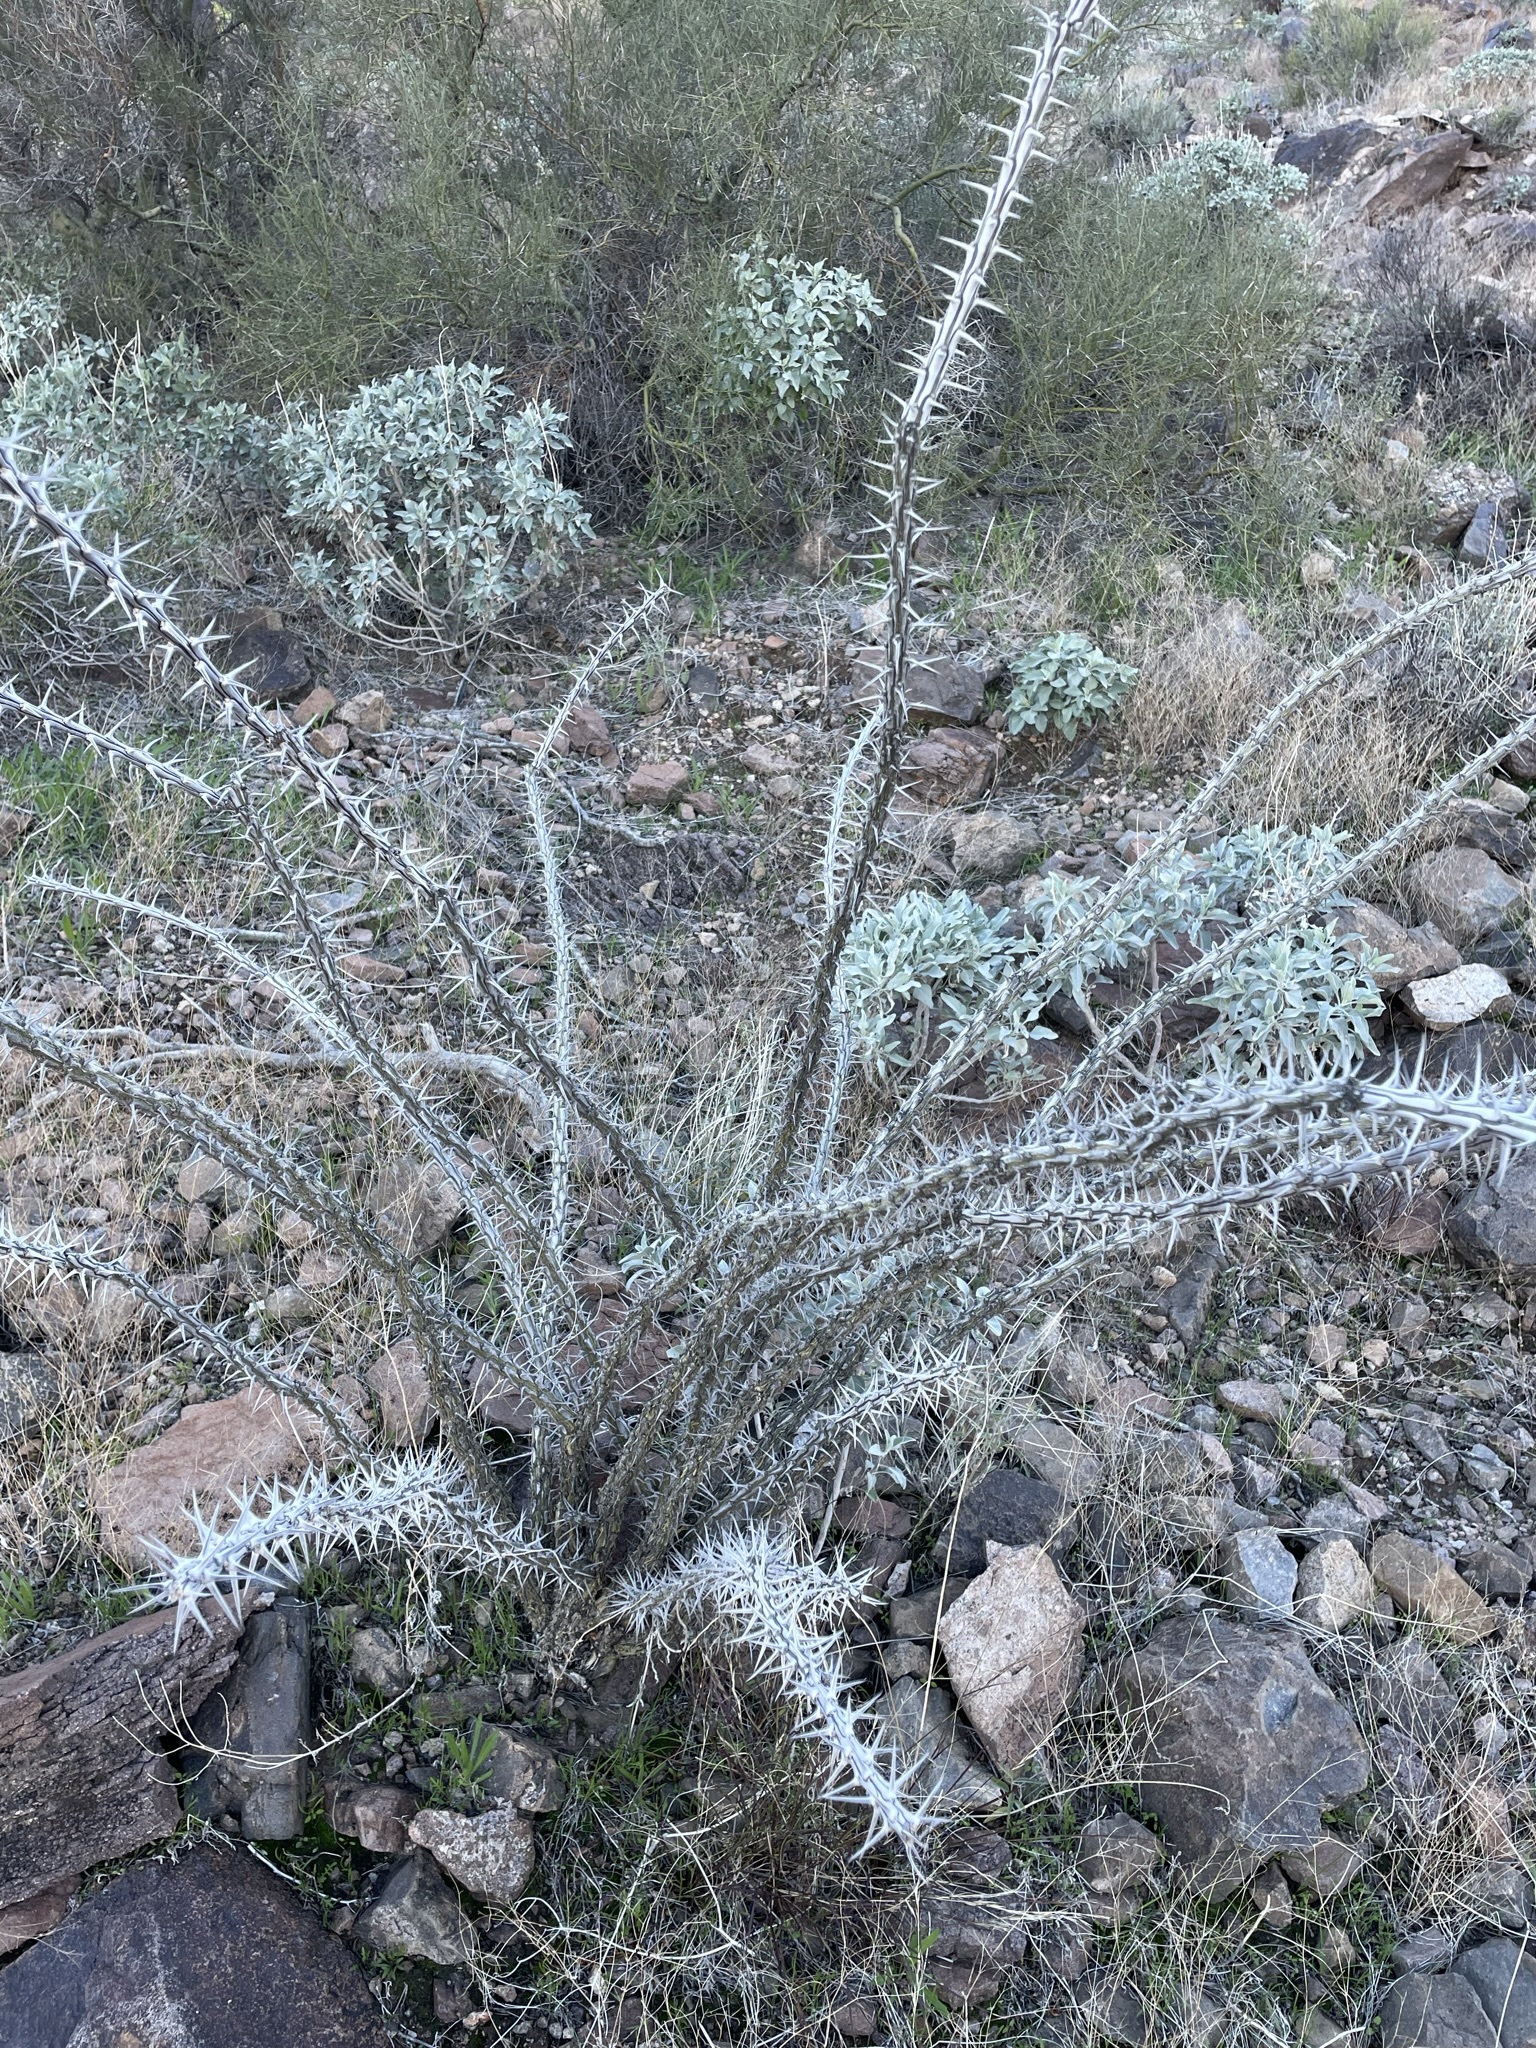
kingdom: Plantae
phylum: Tracheophyta
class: Magnoliopsida
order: Ericales
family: Fouquieriaceae
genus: Fouquieria
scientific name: Fouquieria splendens
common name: Vine-cactus
